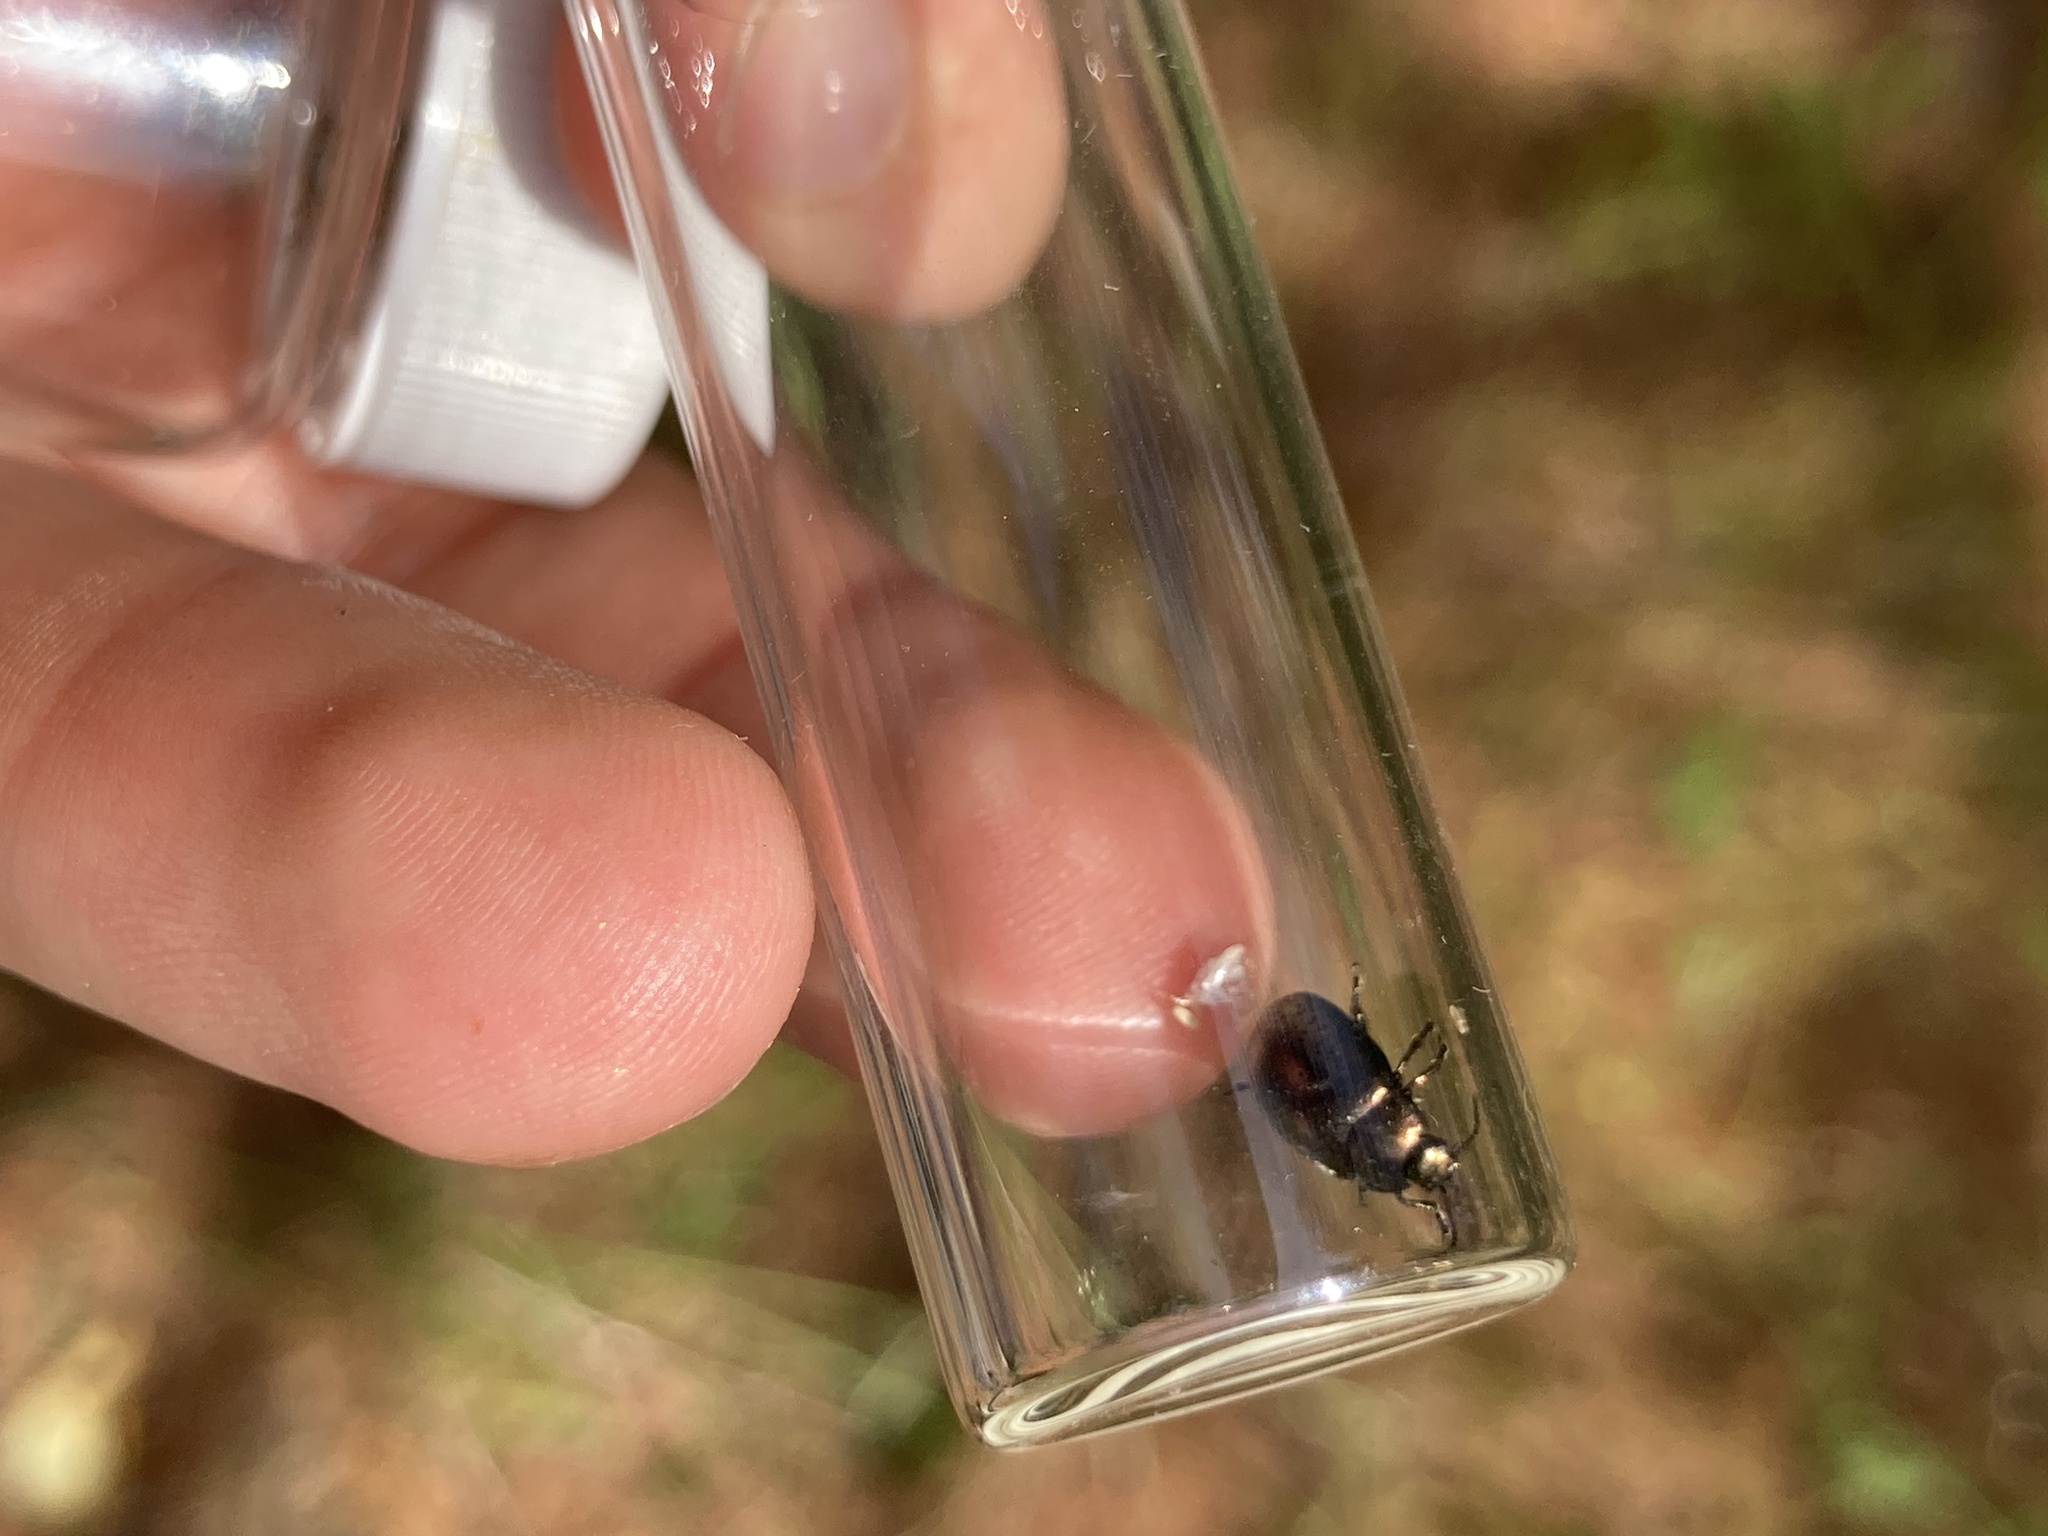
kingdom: Animalia
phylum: Arthropoda
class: Insecta
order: Coleoptera
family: Chrysomelidae
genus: Chrysolina
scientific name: Chrysolina hyperici
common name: St. johnswort beetle
